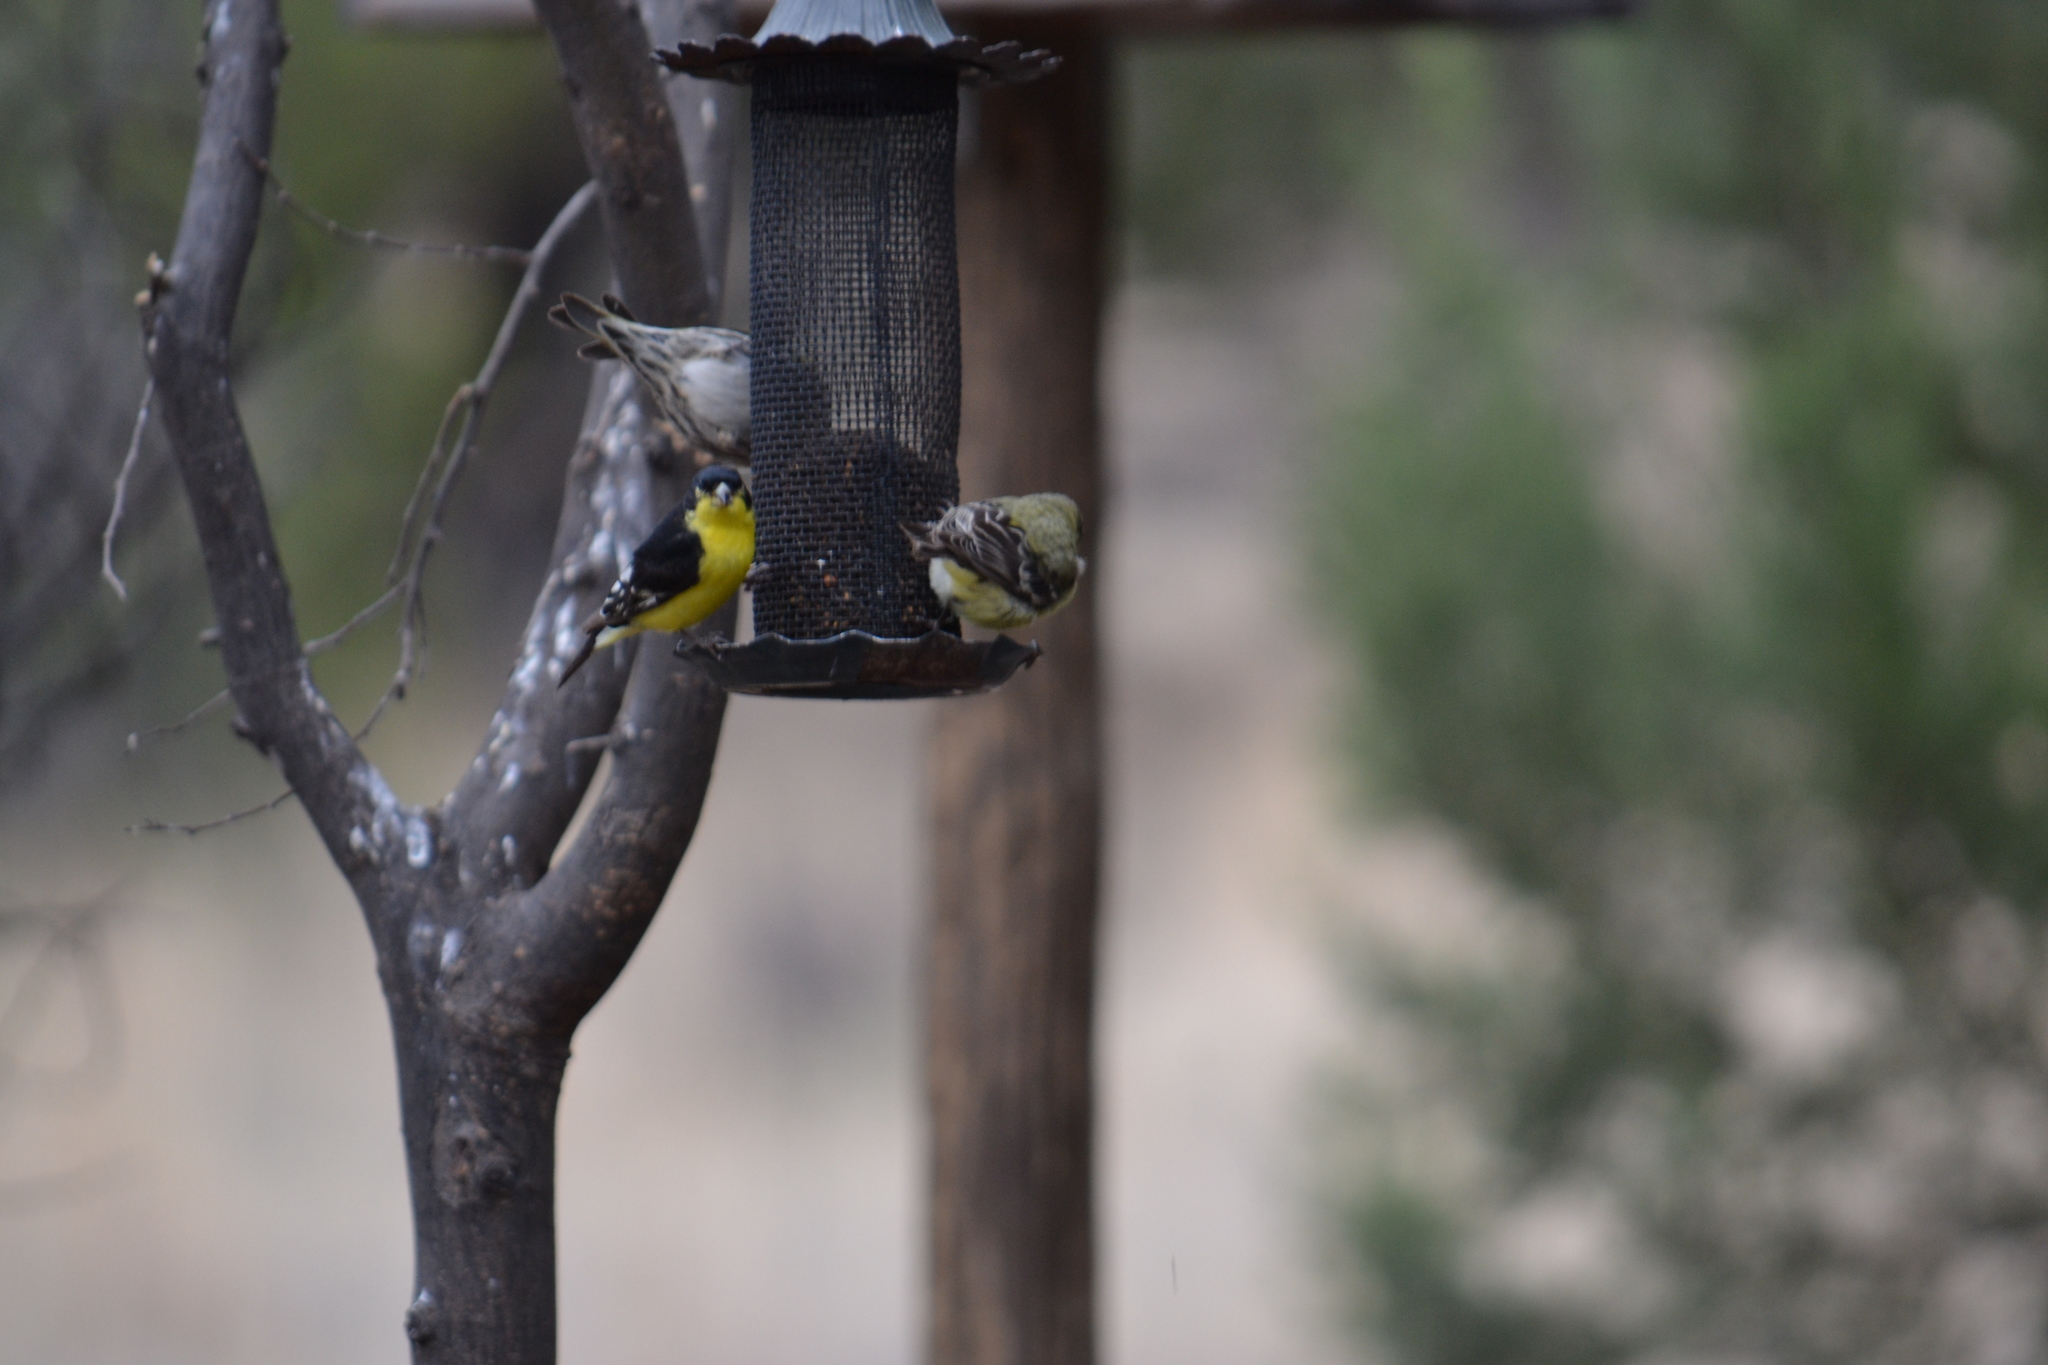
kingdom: Animalia
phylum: Chordata
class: Aves
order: Passeriformes
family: Fringillidae
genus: Spinus
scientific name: Spinus psaltria
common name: Lesser goldfinch
